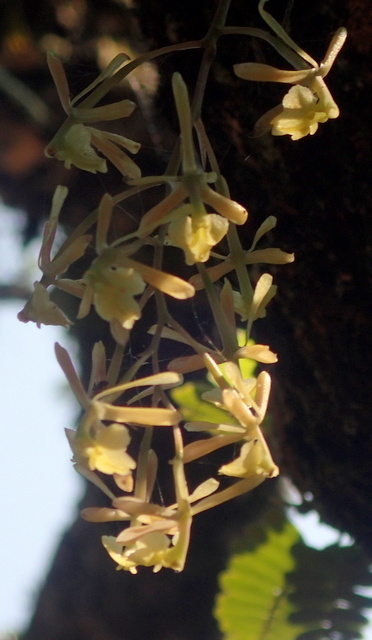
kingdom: Plantae
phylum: Tracheophyta
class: Liliopsida
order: Asparagales
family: Orchidaceae
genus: Epidendrum
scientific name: Epidendrum conopseum
